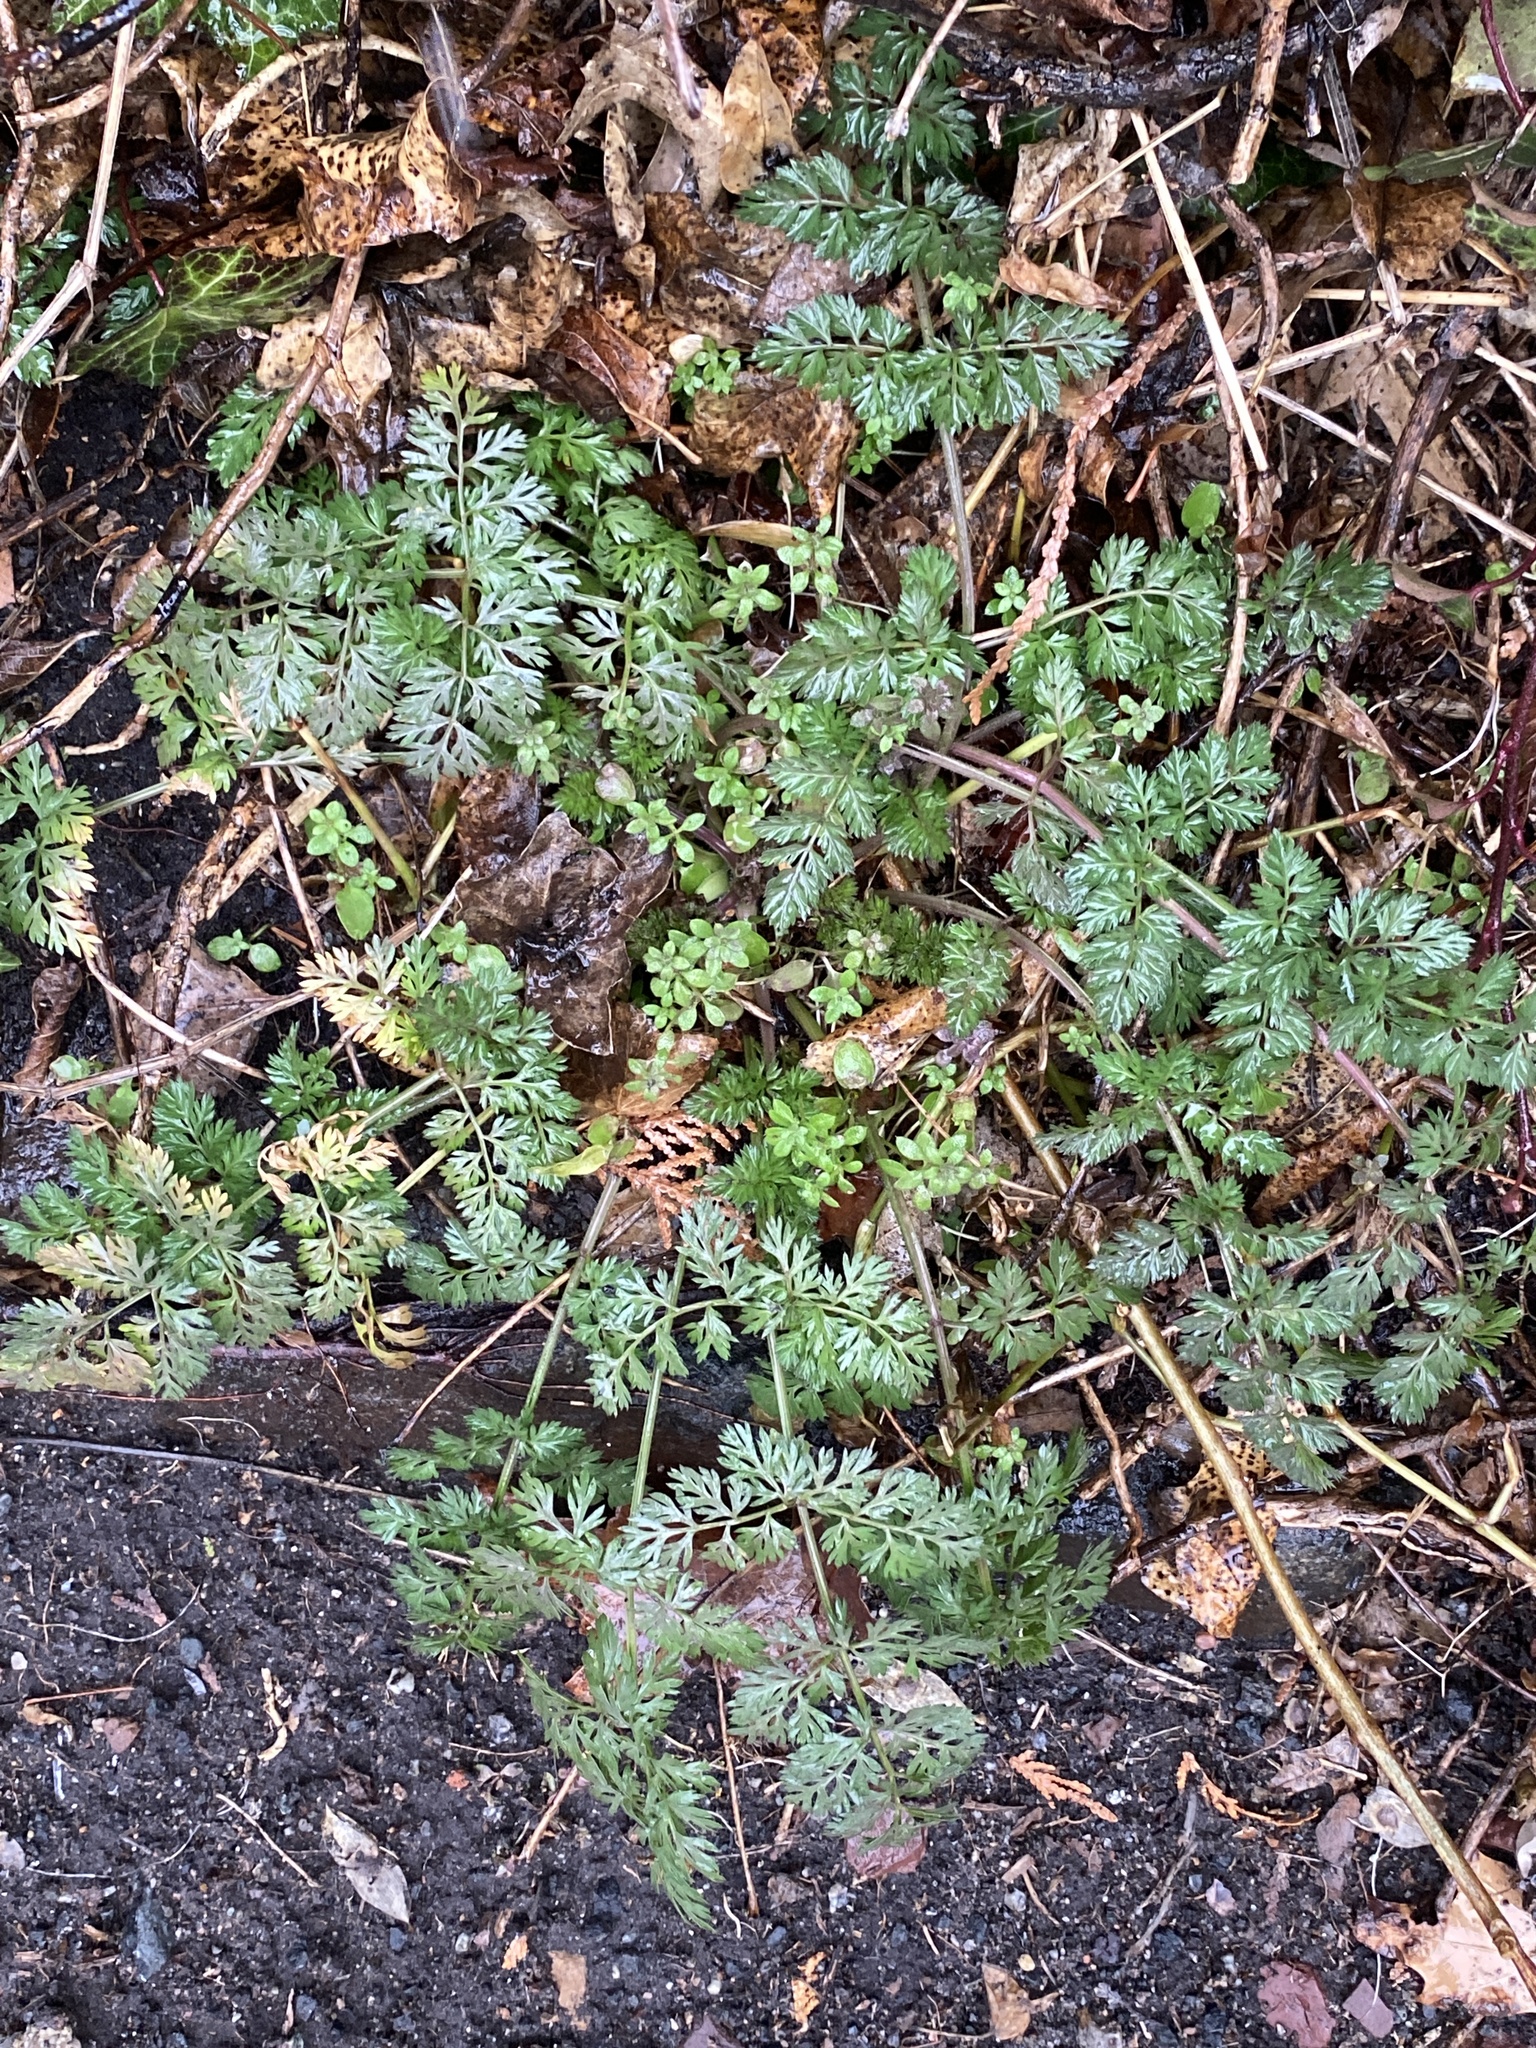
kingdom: Plantae
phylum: Tracheophyta
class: Magnoliopsida
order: Apiales
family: Apiaceae
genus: Daucus
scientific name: Daucus carota
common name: Wild carrot
